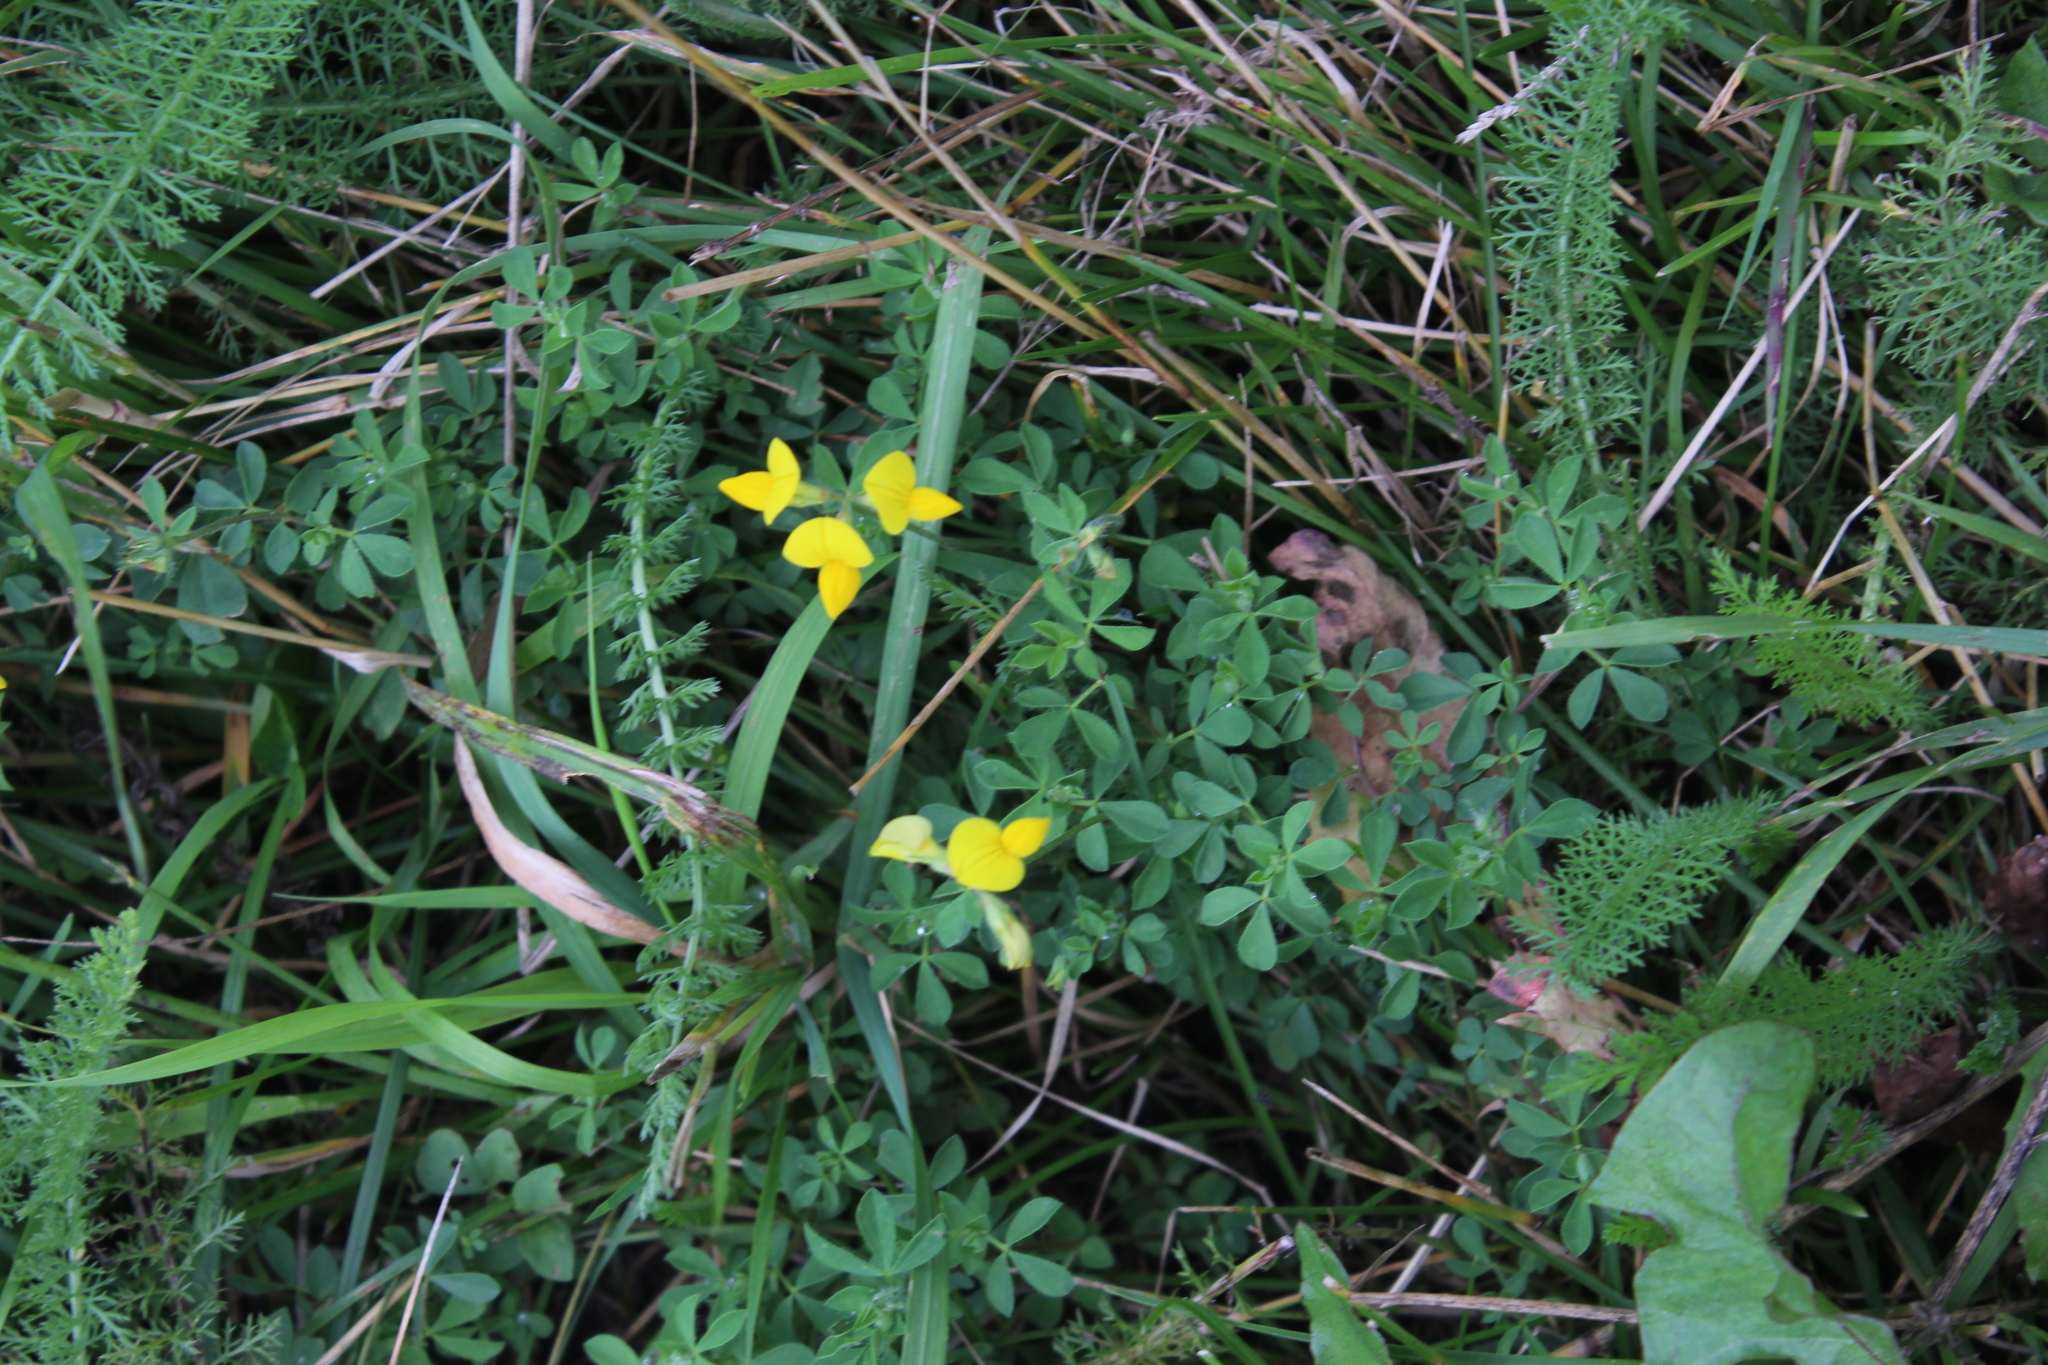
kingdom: Plantae
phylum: Tracheophyta
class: Magnoliopsida
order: Fabales
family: Fabaceae
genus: Lotus
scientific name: Lotus corniculatus
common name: Common bird's-foot-trefoil
